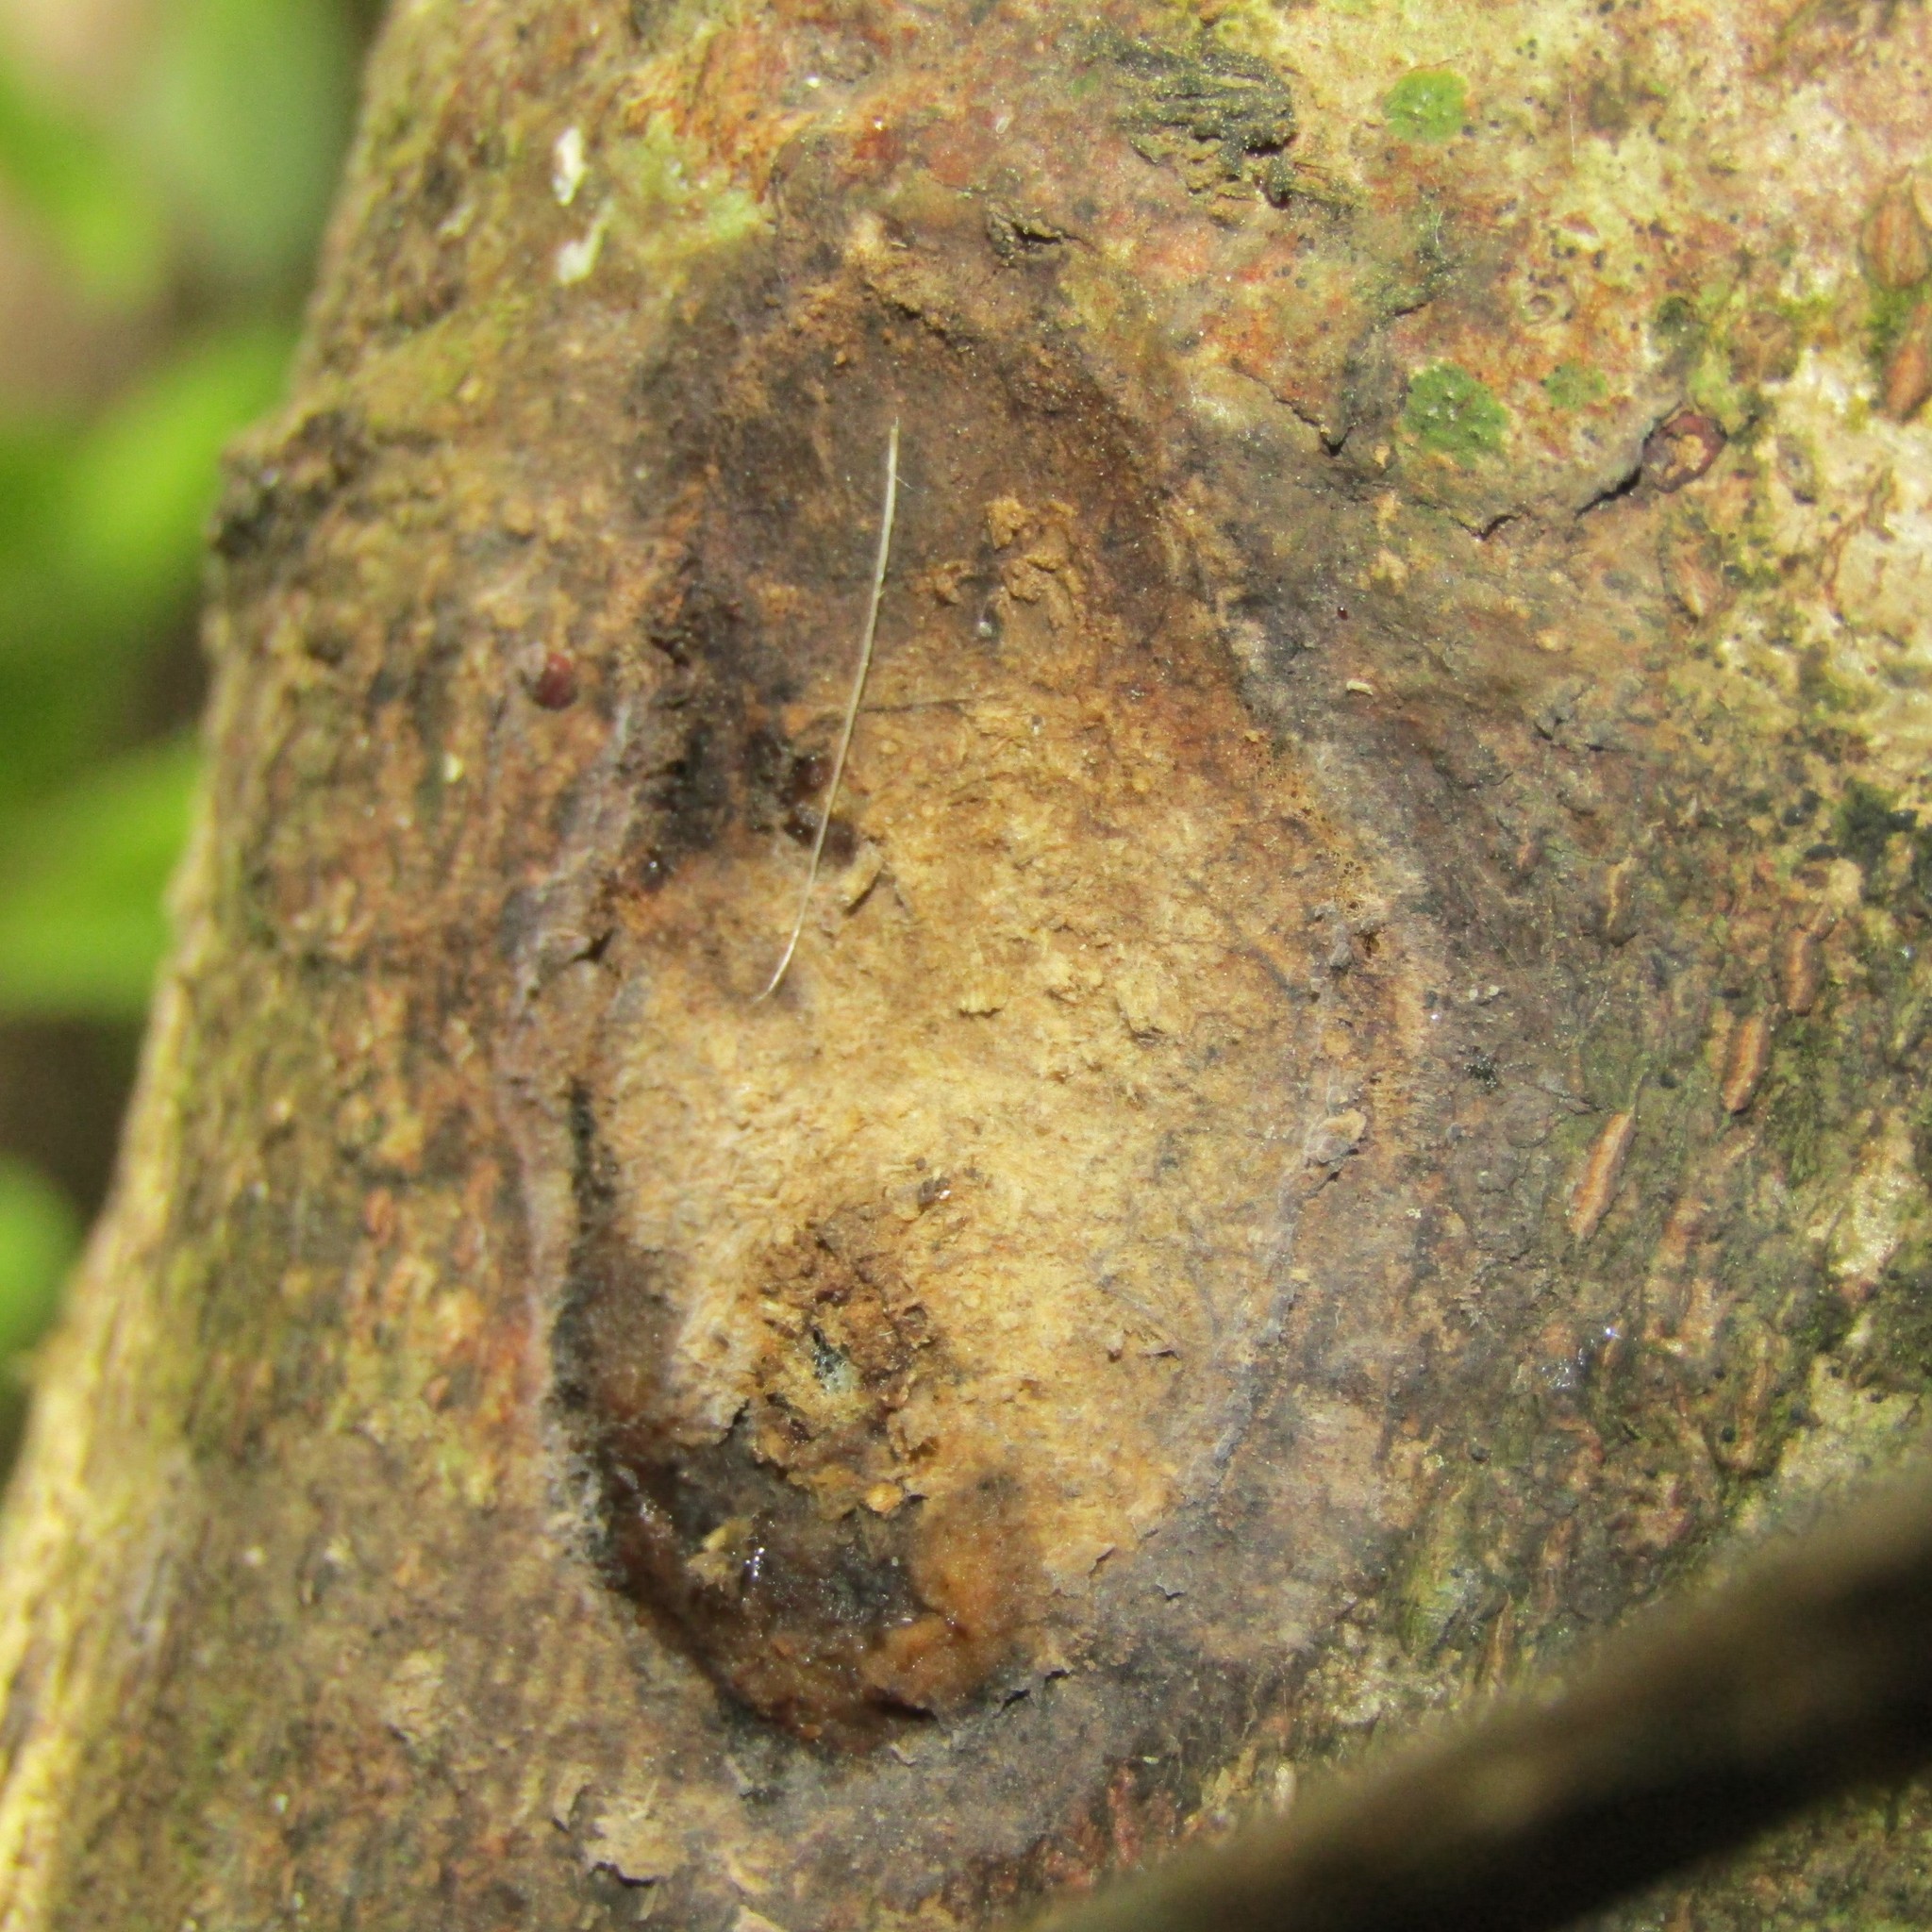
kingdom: Animalia
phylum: Arthropoda
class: Insecta
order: Lepidoptera
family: Hepialidae
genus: Aenetus
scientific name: Aenetus virescens
